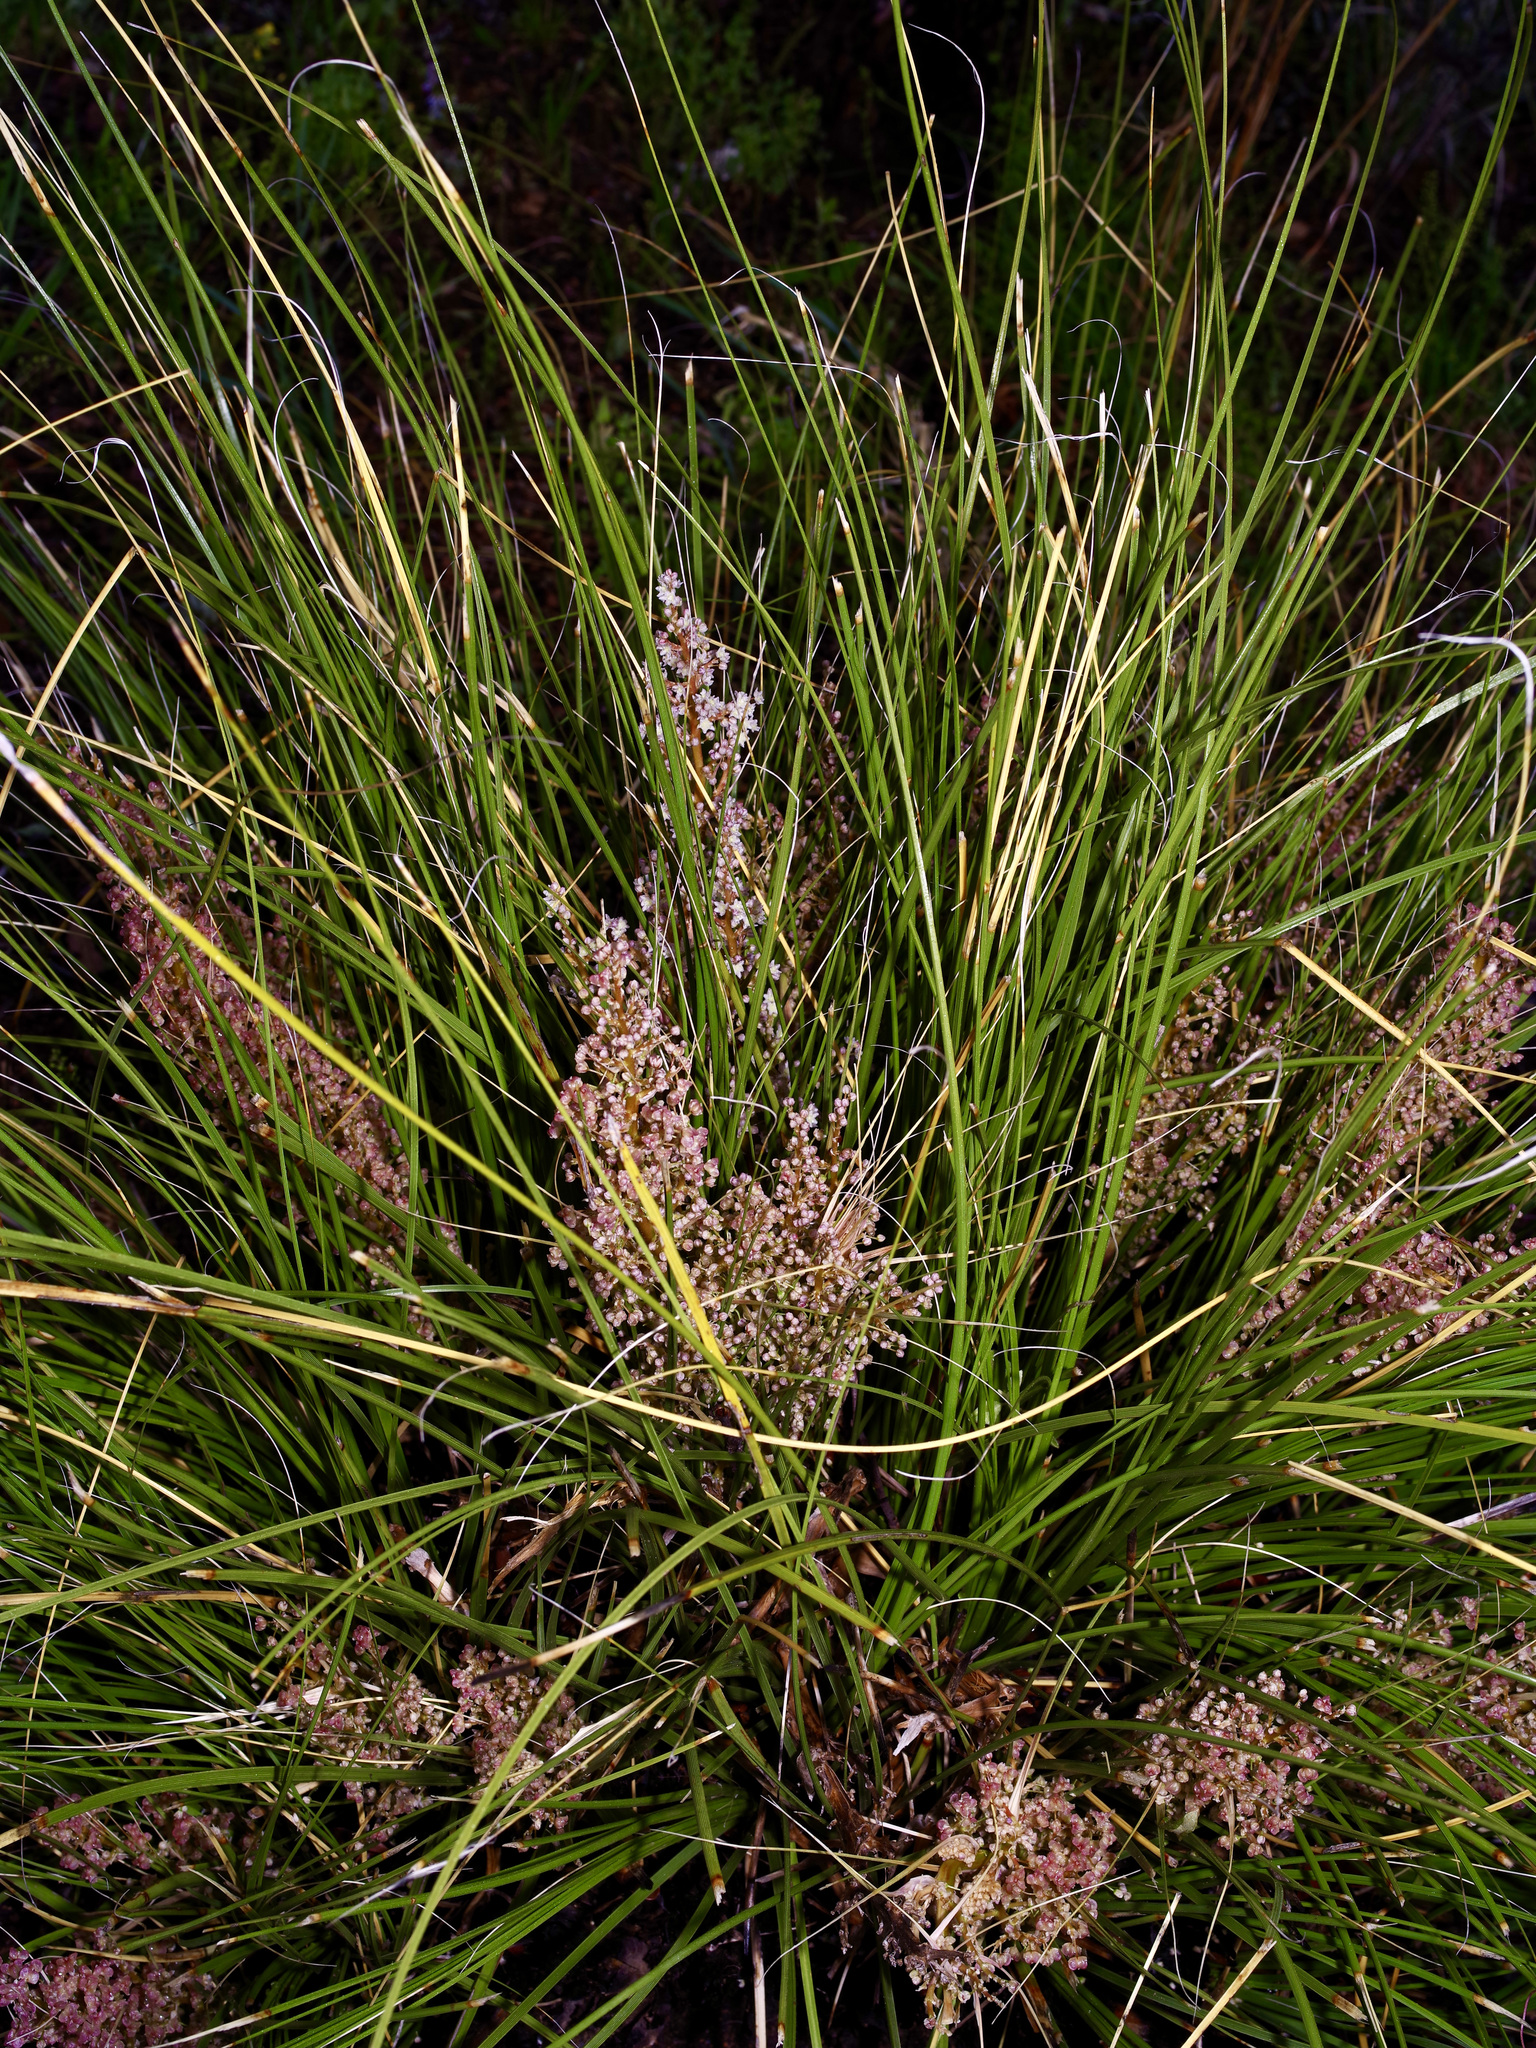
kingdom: Plantae
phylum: Tracheophyta
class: Liliopsida
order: Asparagales
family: Asparagaceae
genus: Nolina
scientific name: Nolina texana
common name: Texas sacahuiste
